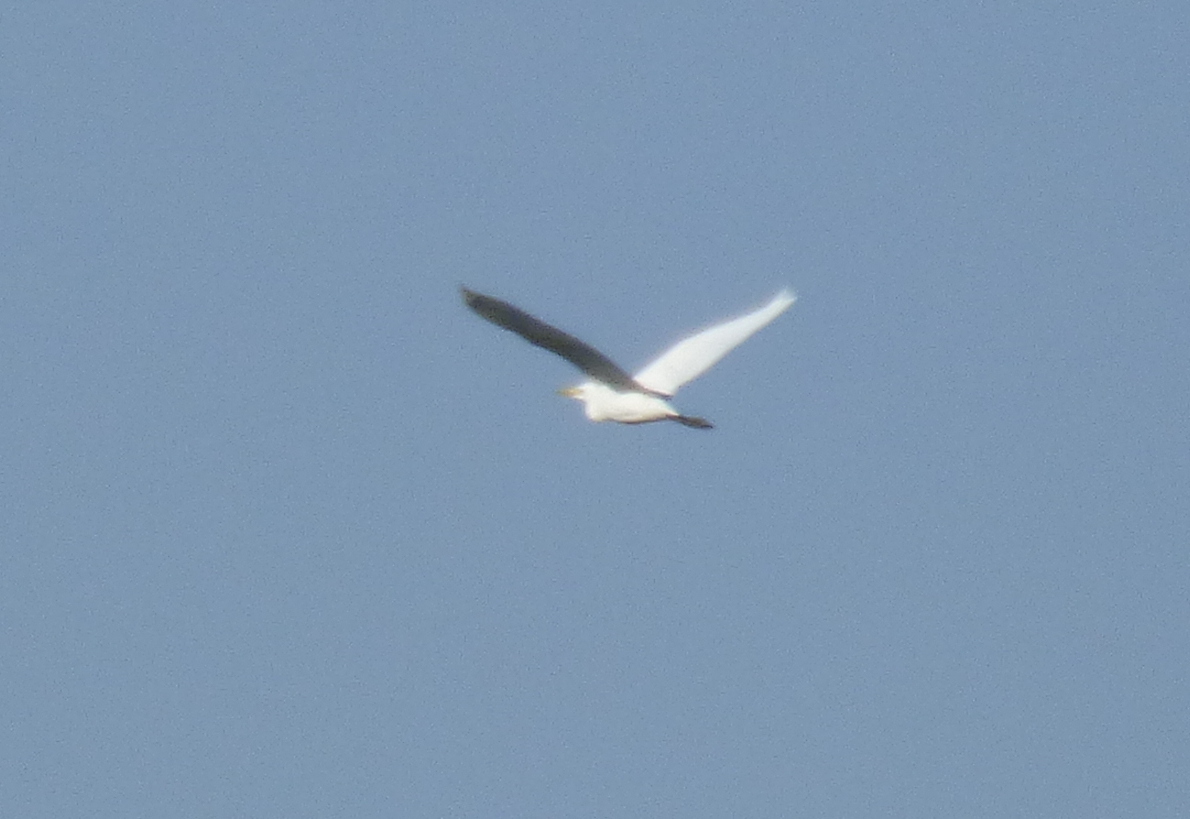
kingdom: Animalia
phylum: Chordata
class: Aves
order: Pelecaniformes
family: Ardeidae
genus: Bubulcus
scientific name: Bubulcus ibis
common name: Cattle egret
